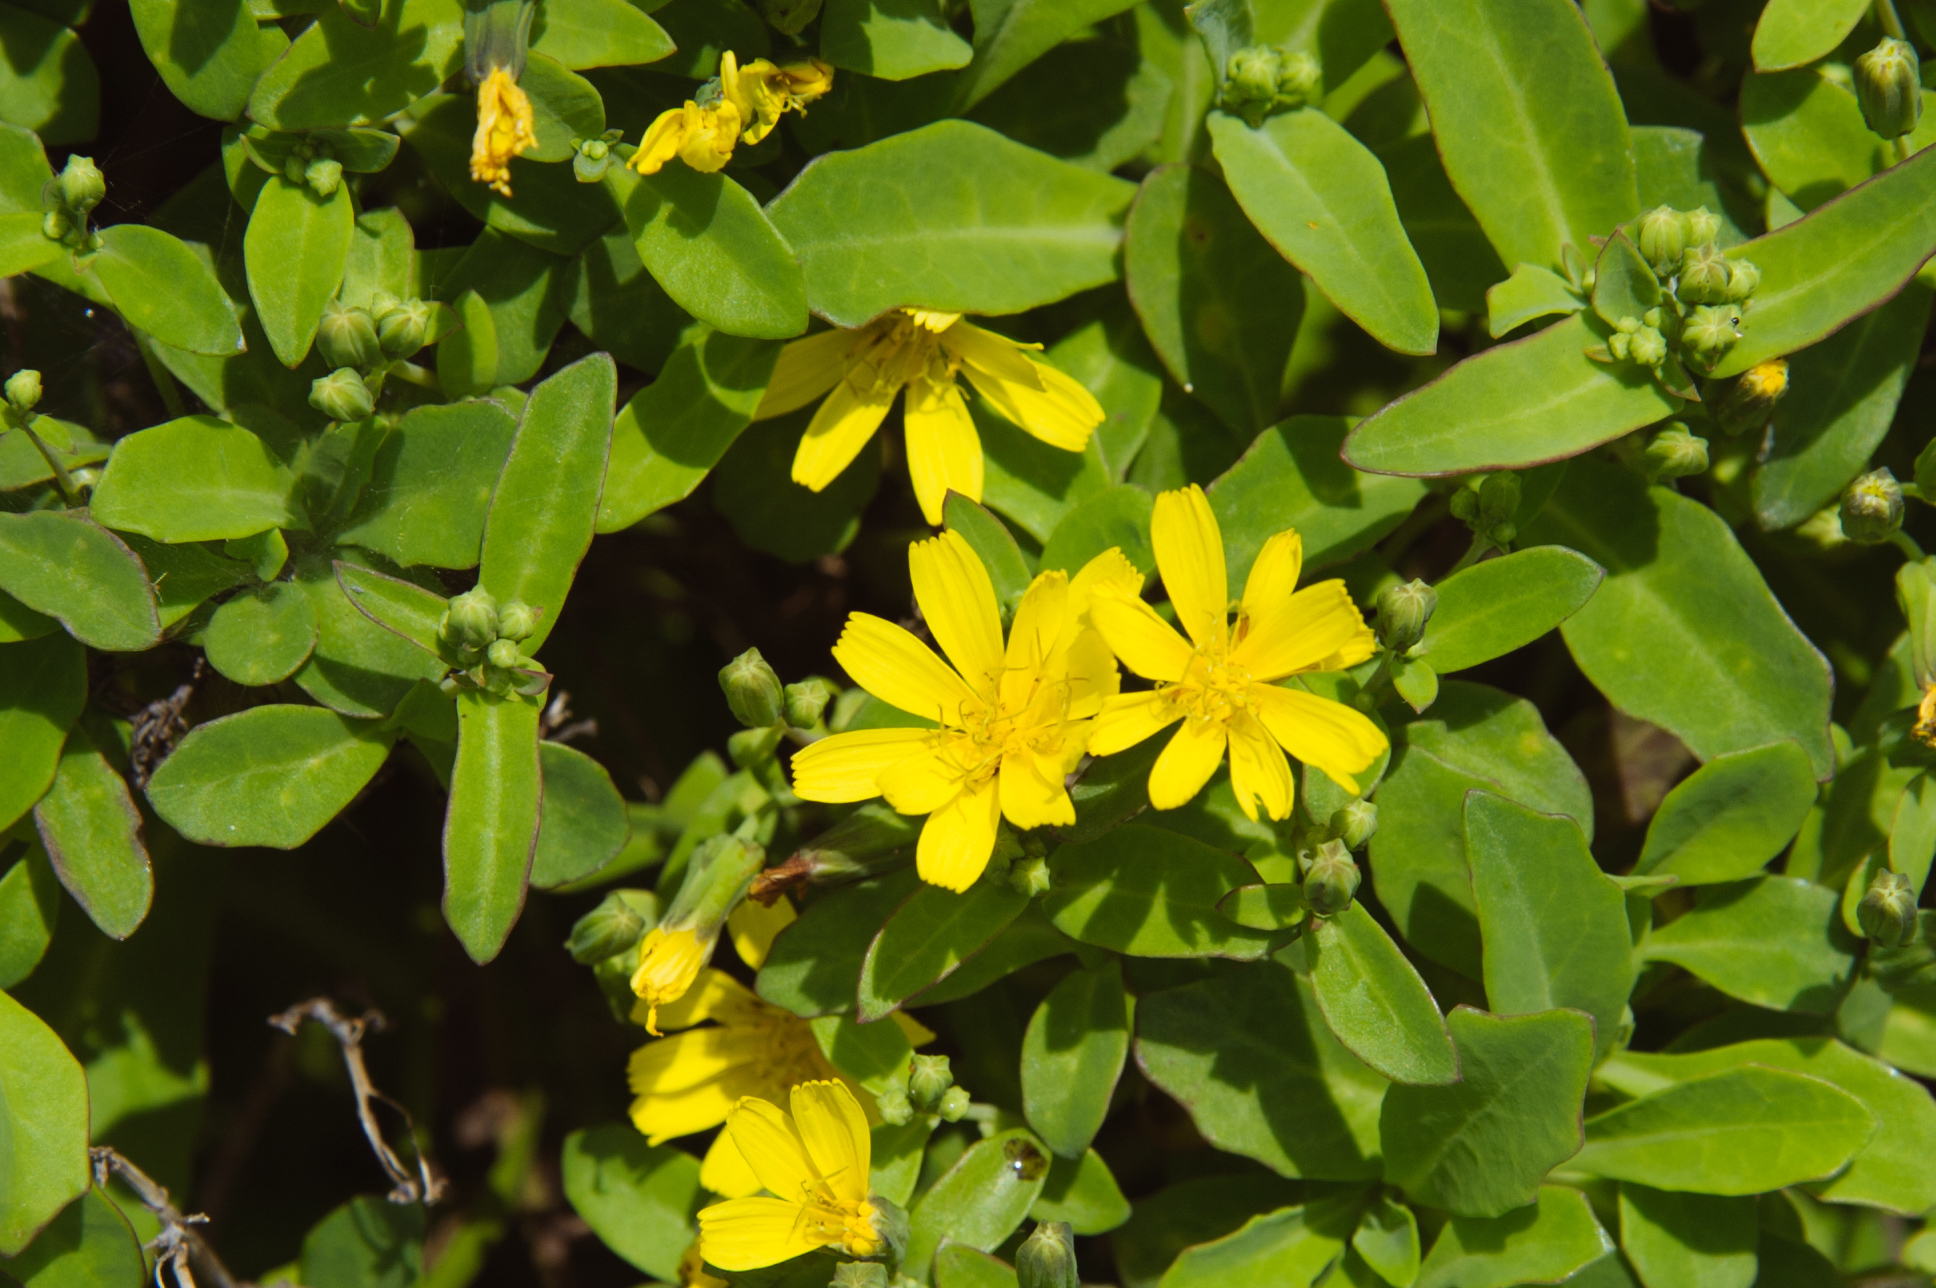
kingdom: Plantae
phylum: Tracheophyta
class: Magnoliopsida
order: Asterales
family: Asteraceae
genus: Crepidiastrum
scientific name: Crepidiastrum lanceolatum
